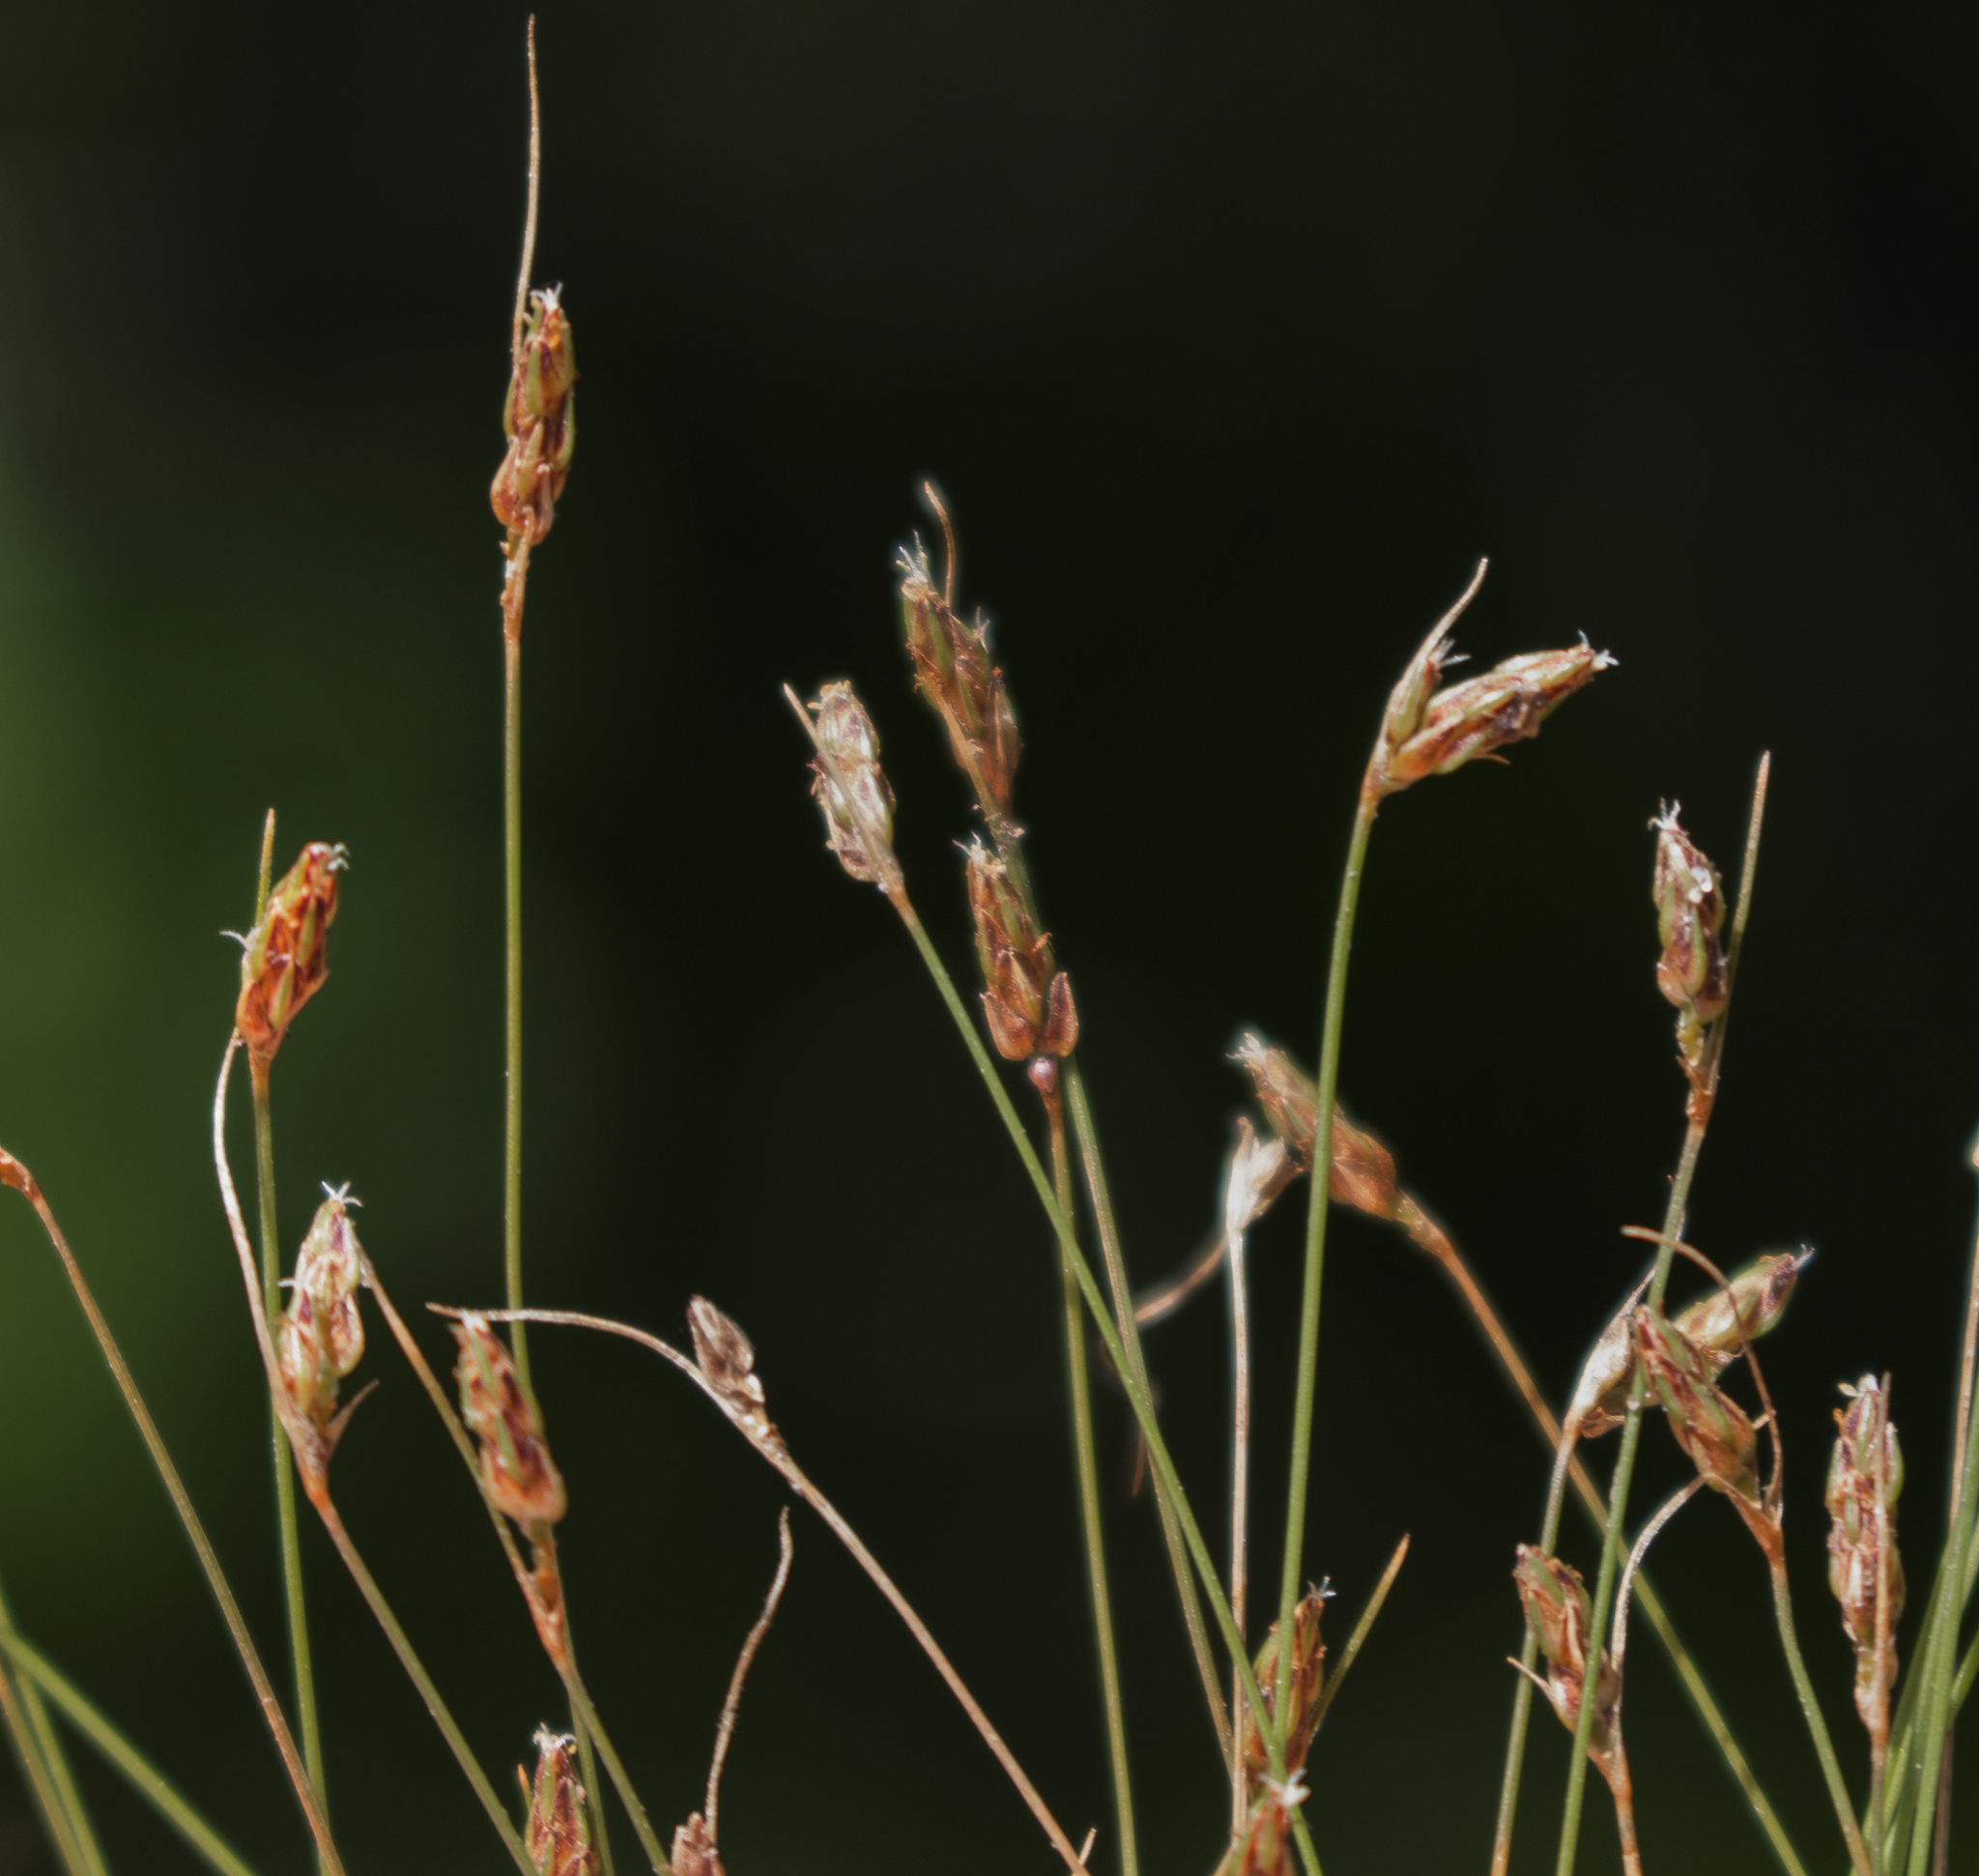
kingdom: Plantae
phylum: Tracheophyta
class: Liliopsida
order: Poales
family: Cyperaceae
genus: Bulbostylis
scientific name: Bulbostylis capillaris
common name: Densetuft hairsedge
